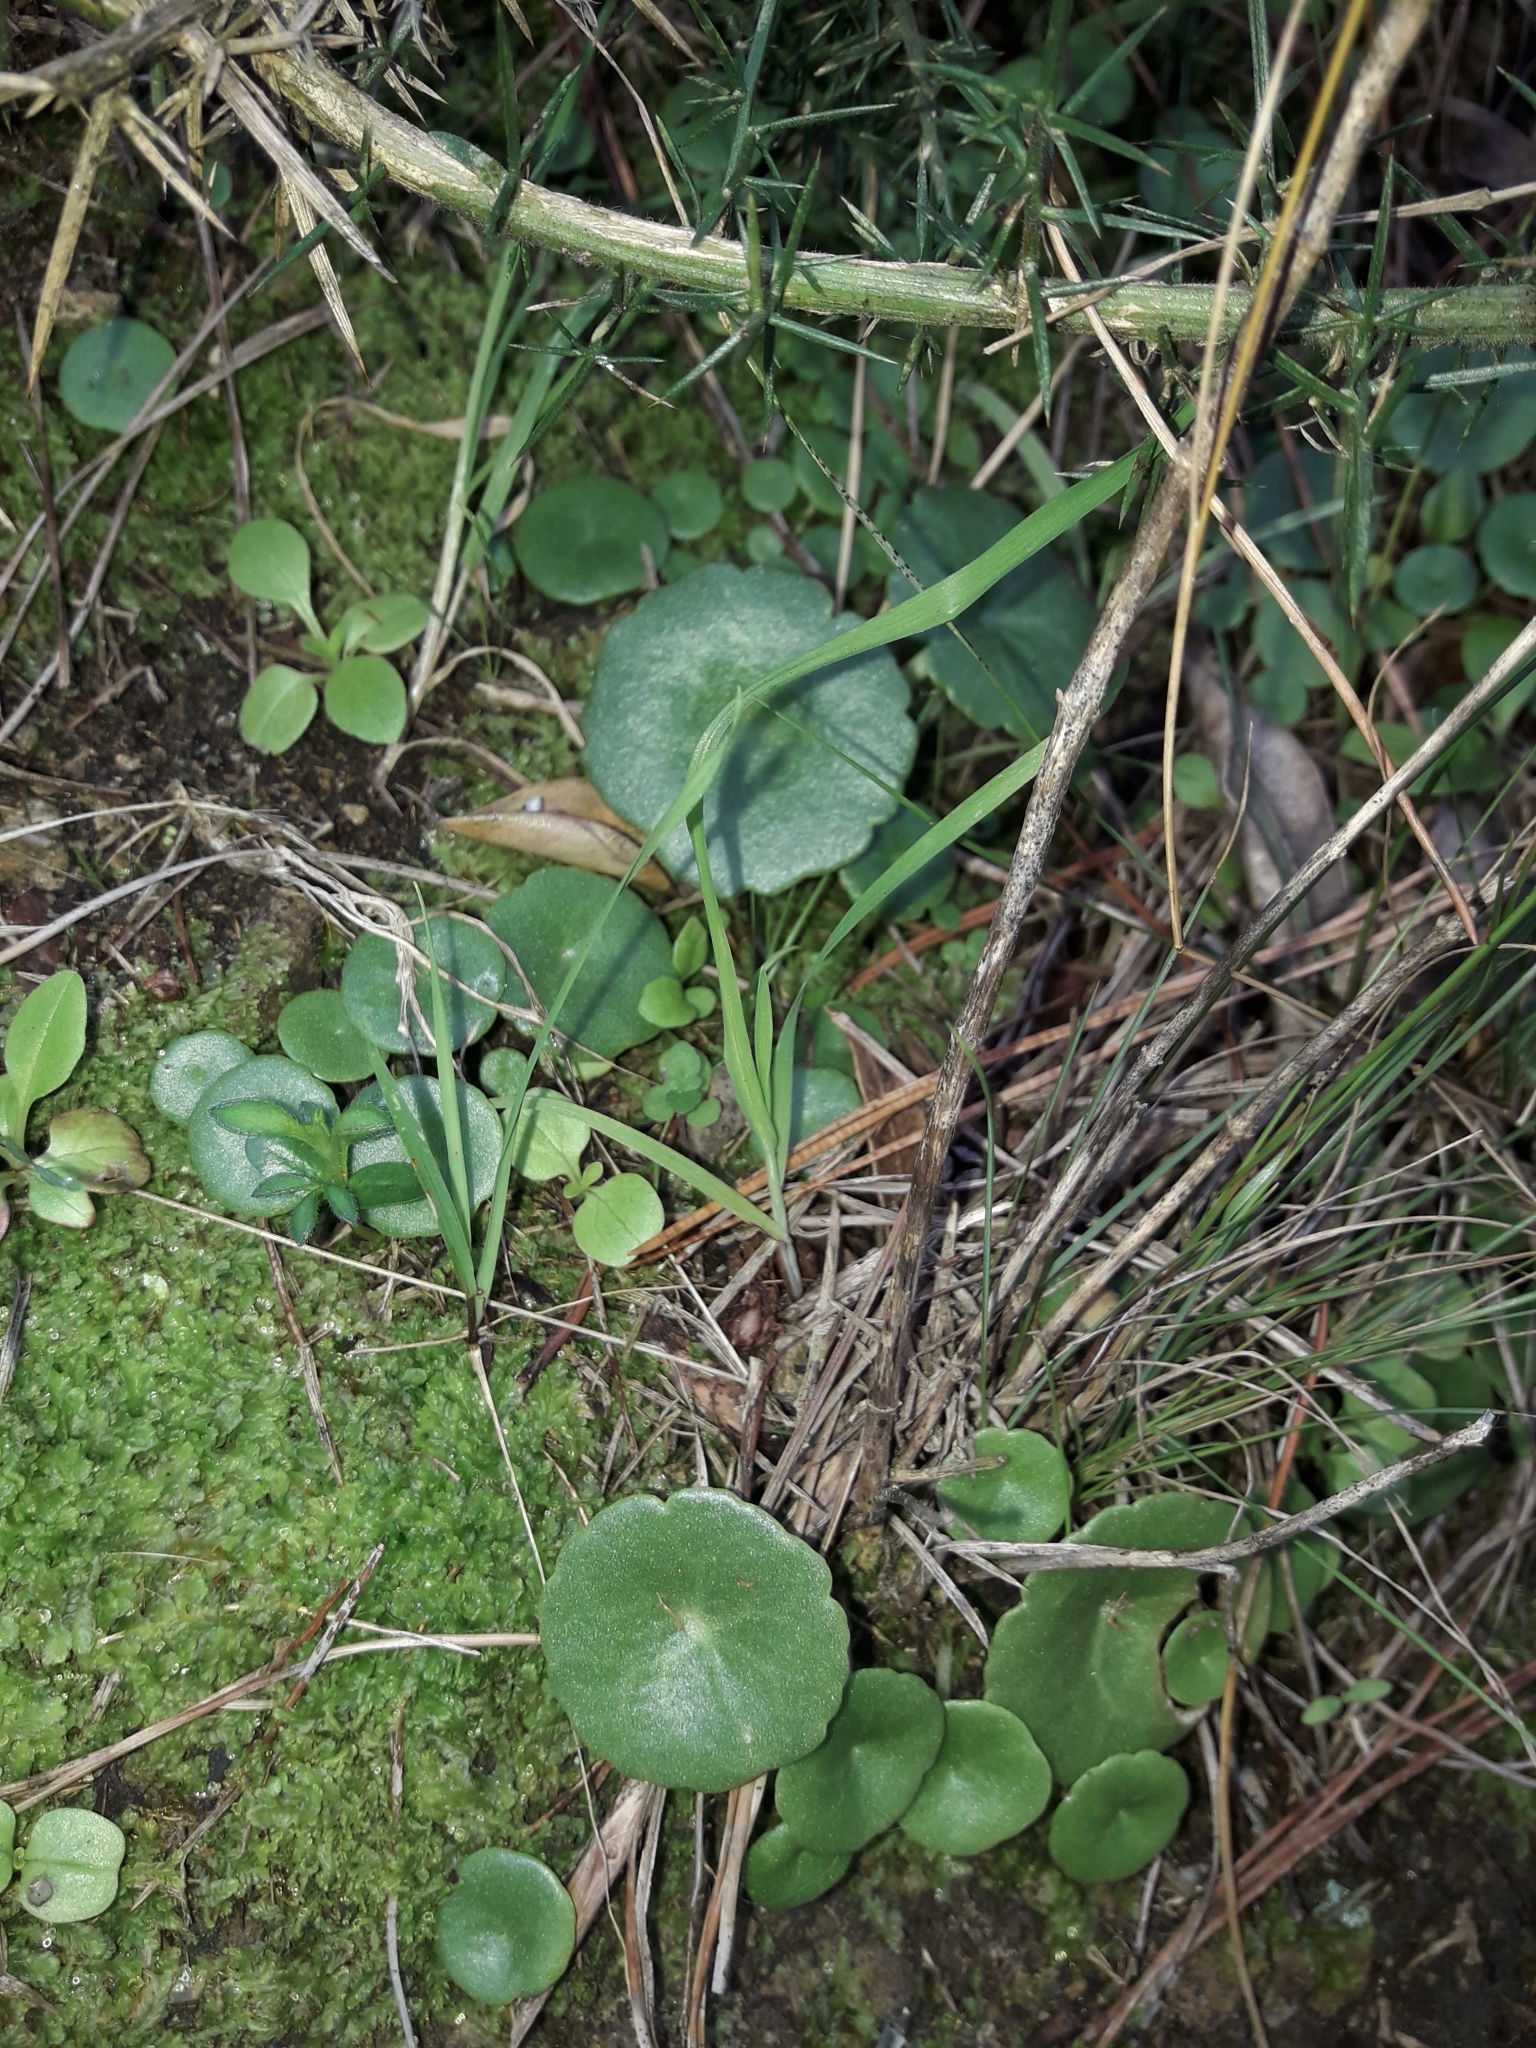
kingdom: Plantae
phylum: Tracheophyta
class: Magnoliopsida
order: Saxifragales
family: Crassulaceae
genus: Umbilicus
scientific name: Umbilicus rupestris
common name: Navelwort
